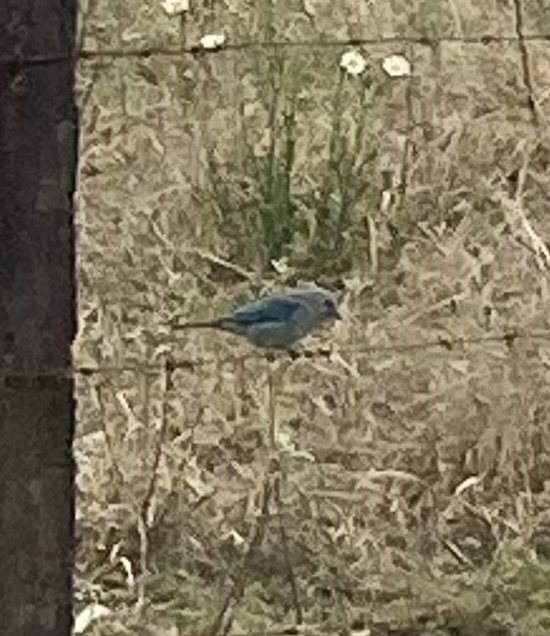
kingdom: Animalia
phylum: Chordata
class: Aves
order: Passeriformes
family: Thraupidae
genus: Thraupis
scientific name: Thraupis sayaca
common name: Sayaca tanager
